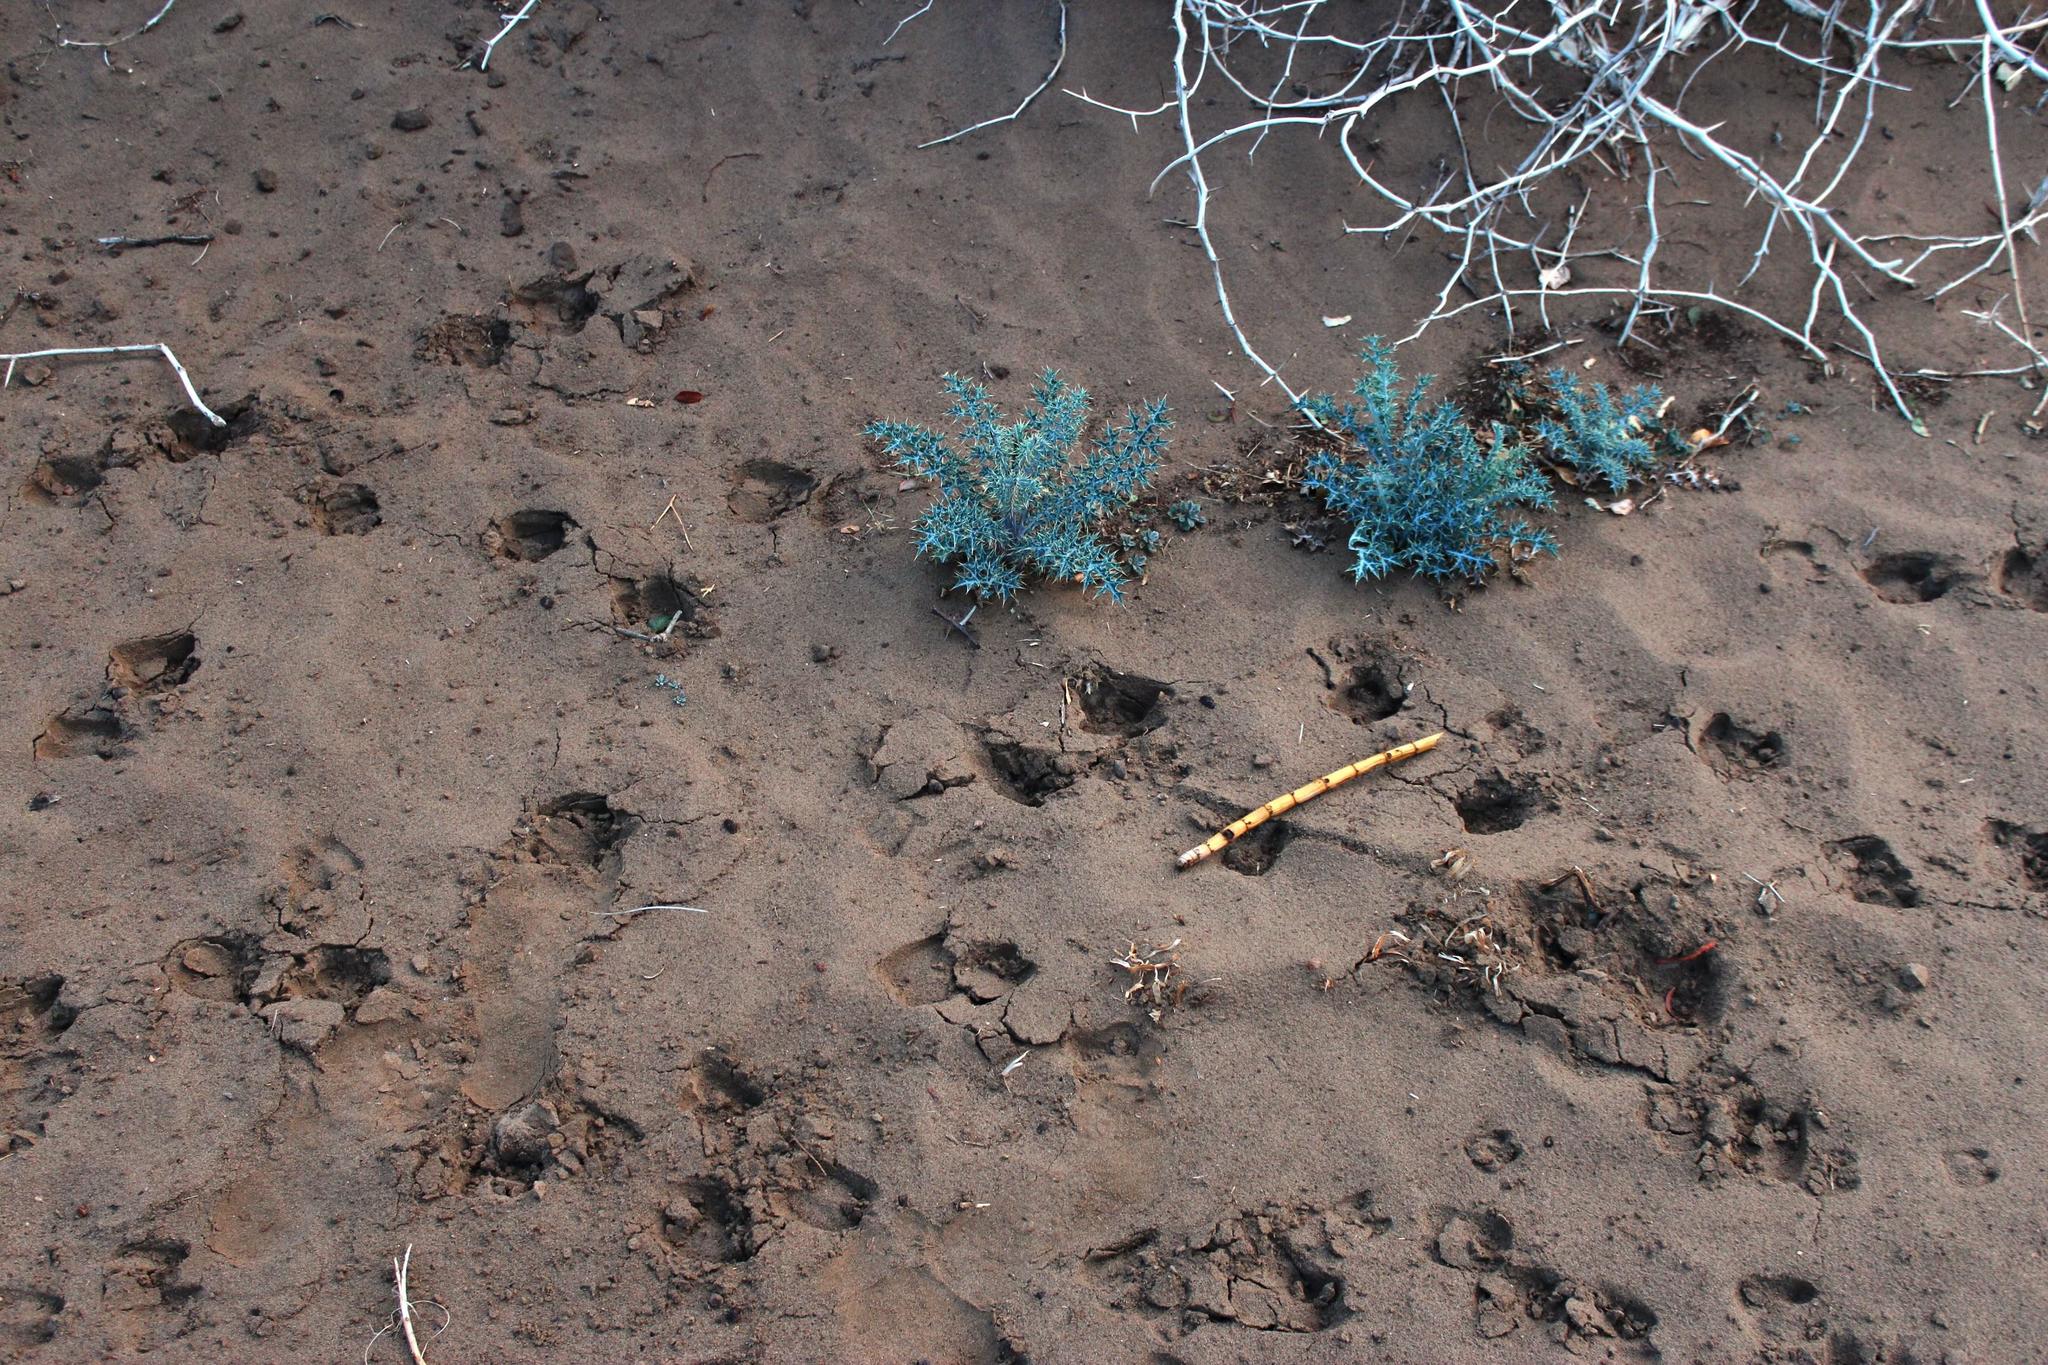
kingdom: Animalia
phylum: Chordata
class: Mammalia
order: Artiodactyla
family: Bovidae
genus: Capra
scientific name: Capra hircus
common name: Domestic goat
